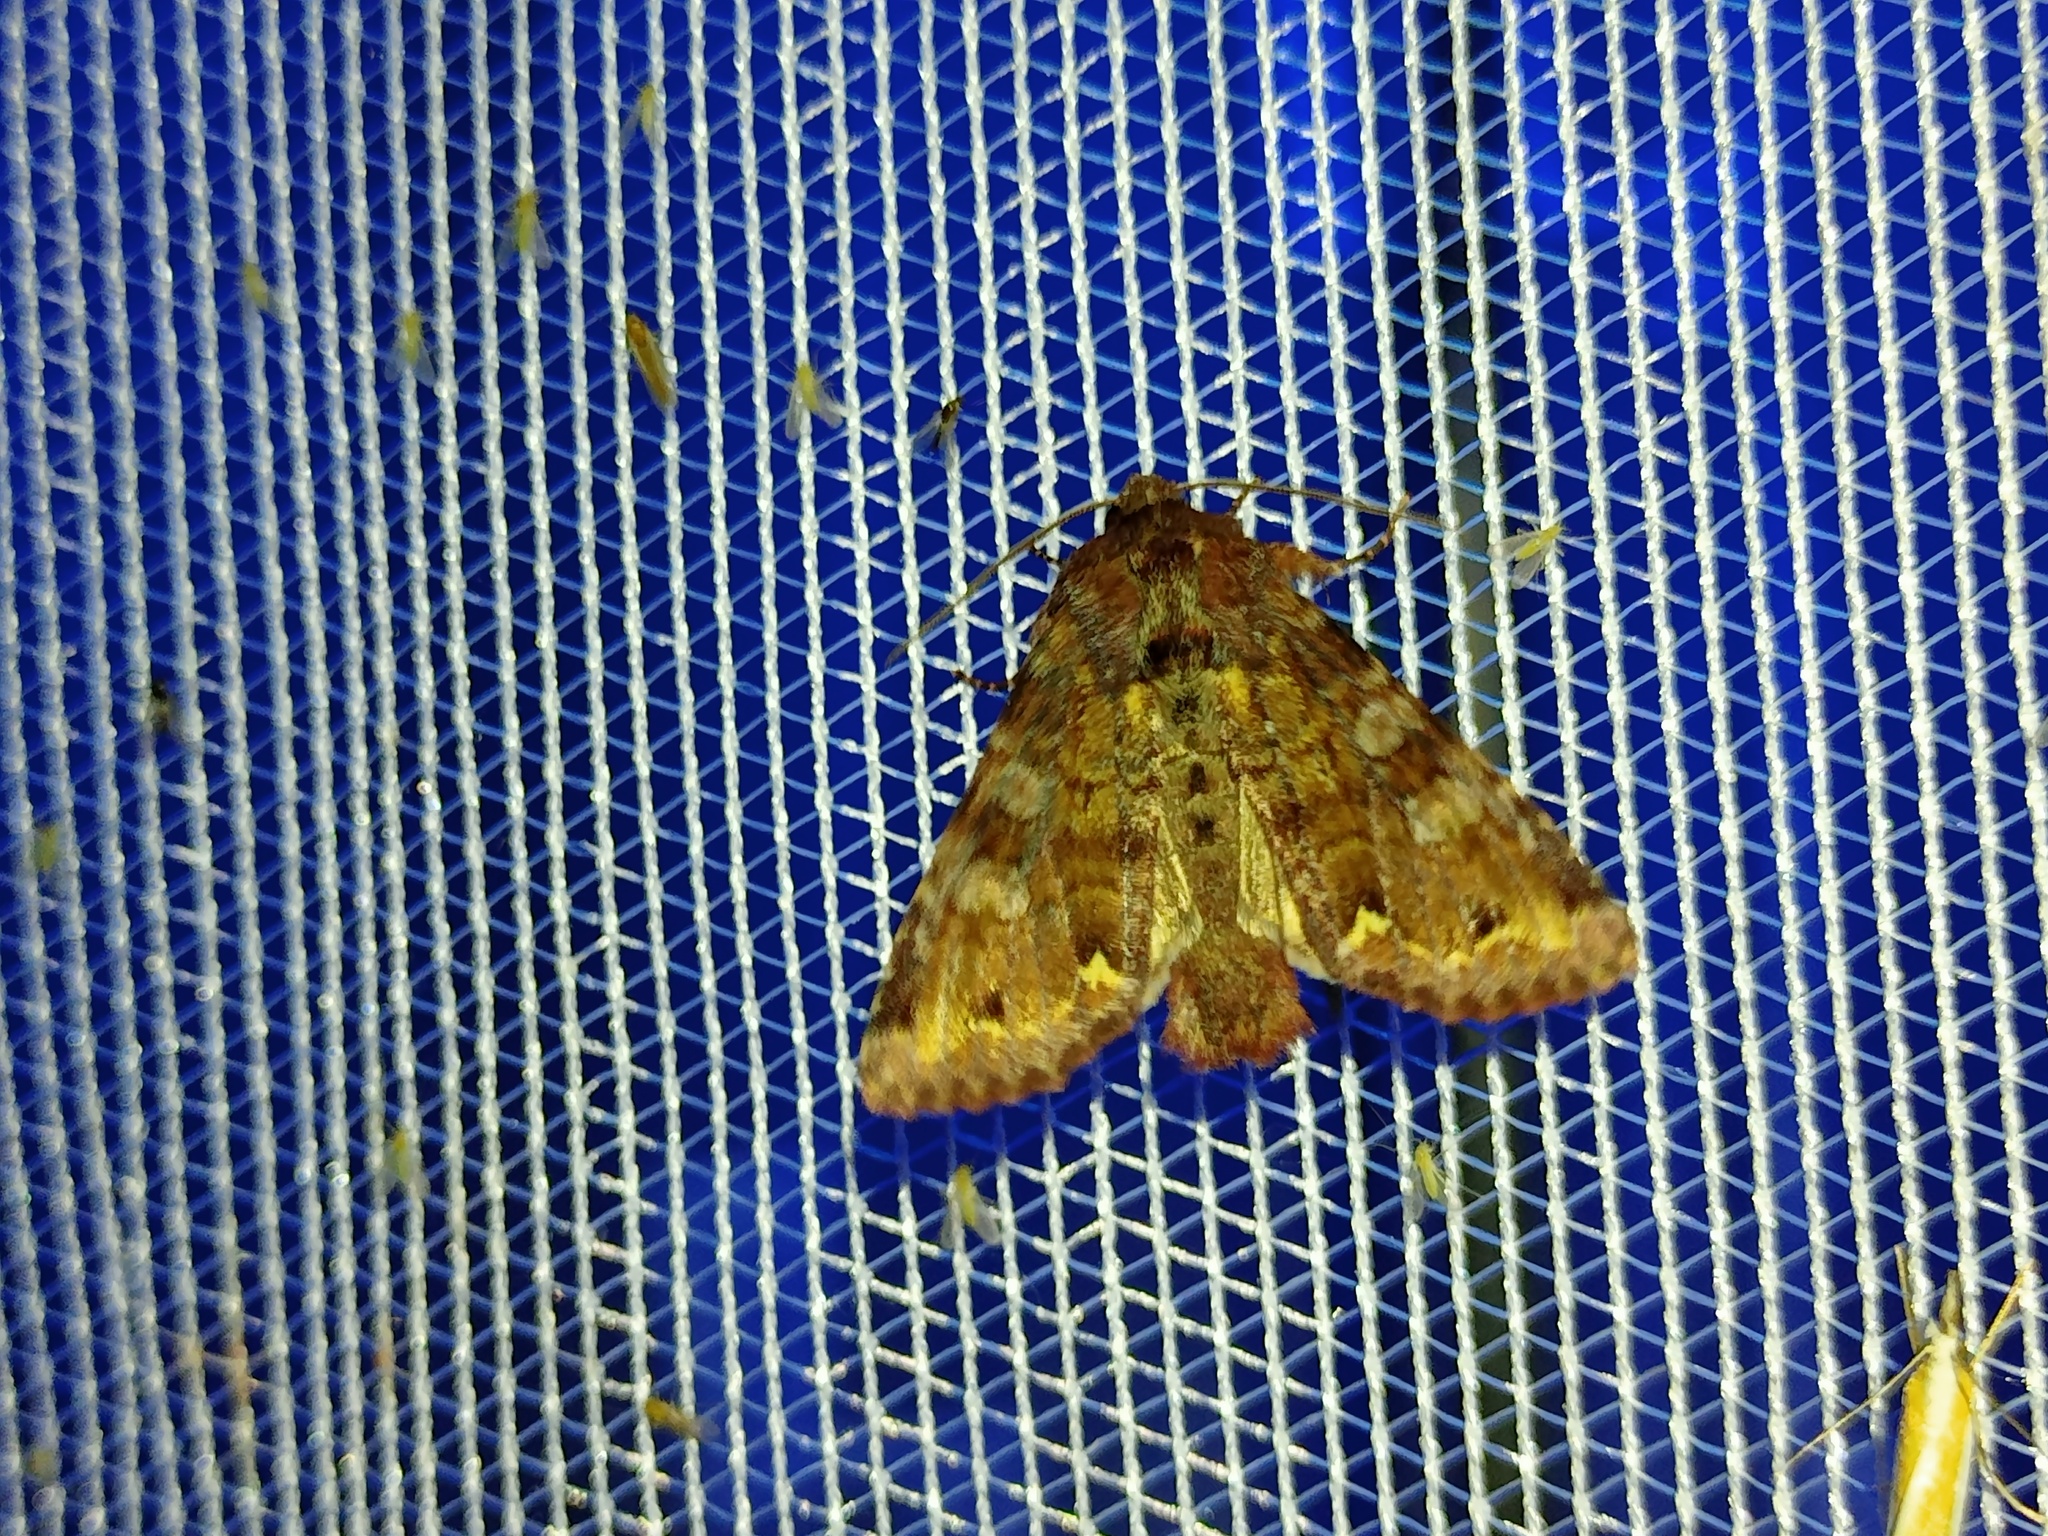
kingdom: Animalia
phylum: Arthropoda
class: Insecta
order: Lepidoptera
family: Noctuidae
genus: Ceramica
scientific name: Ceramica pisi
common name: Broom moth
